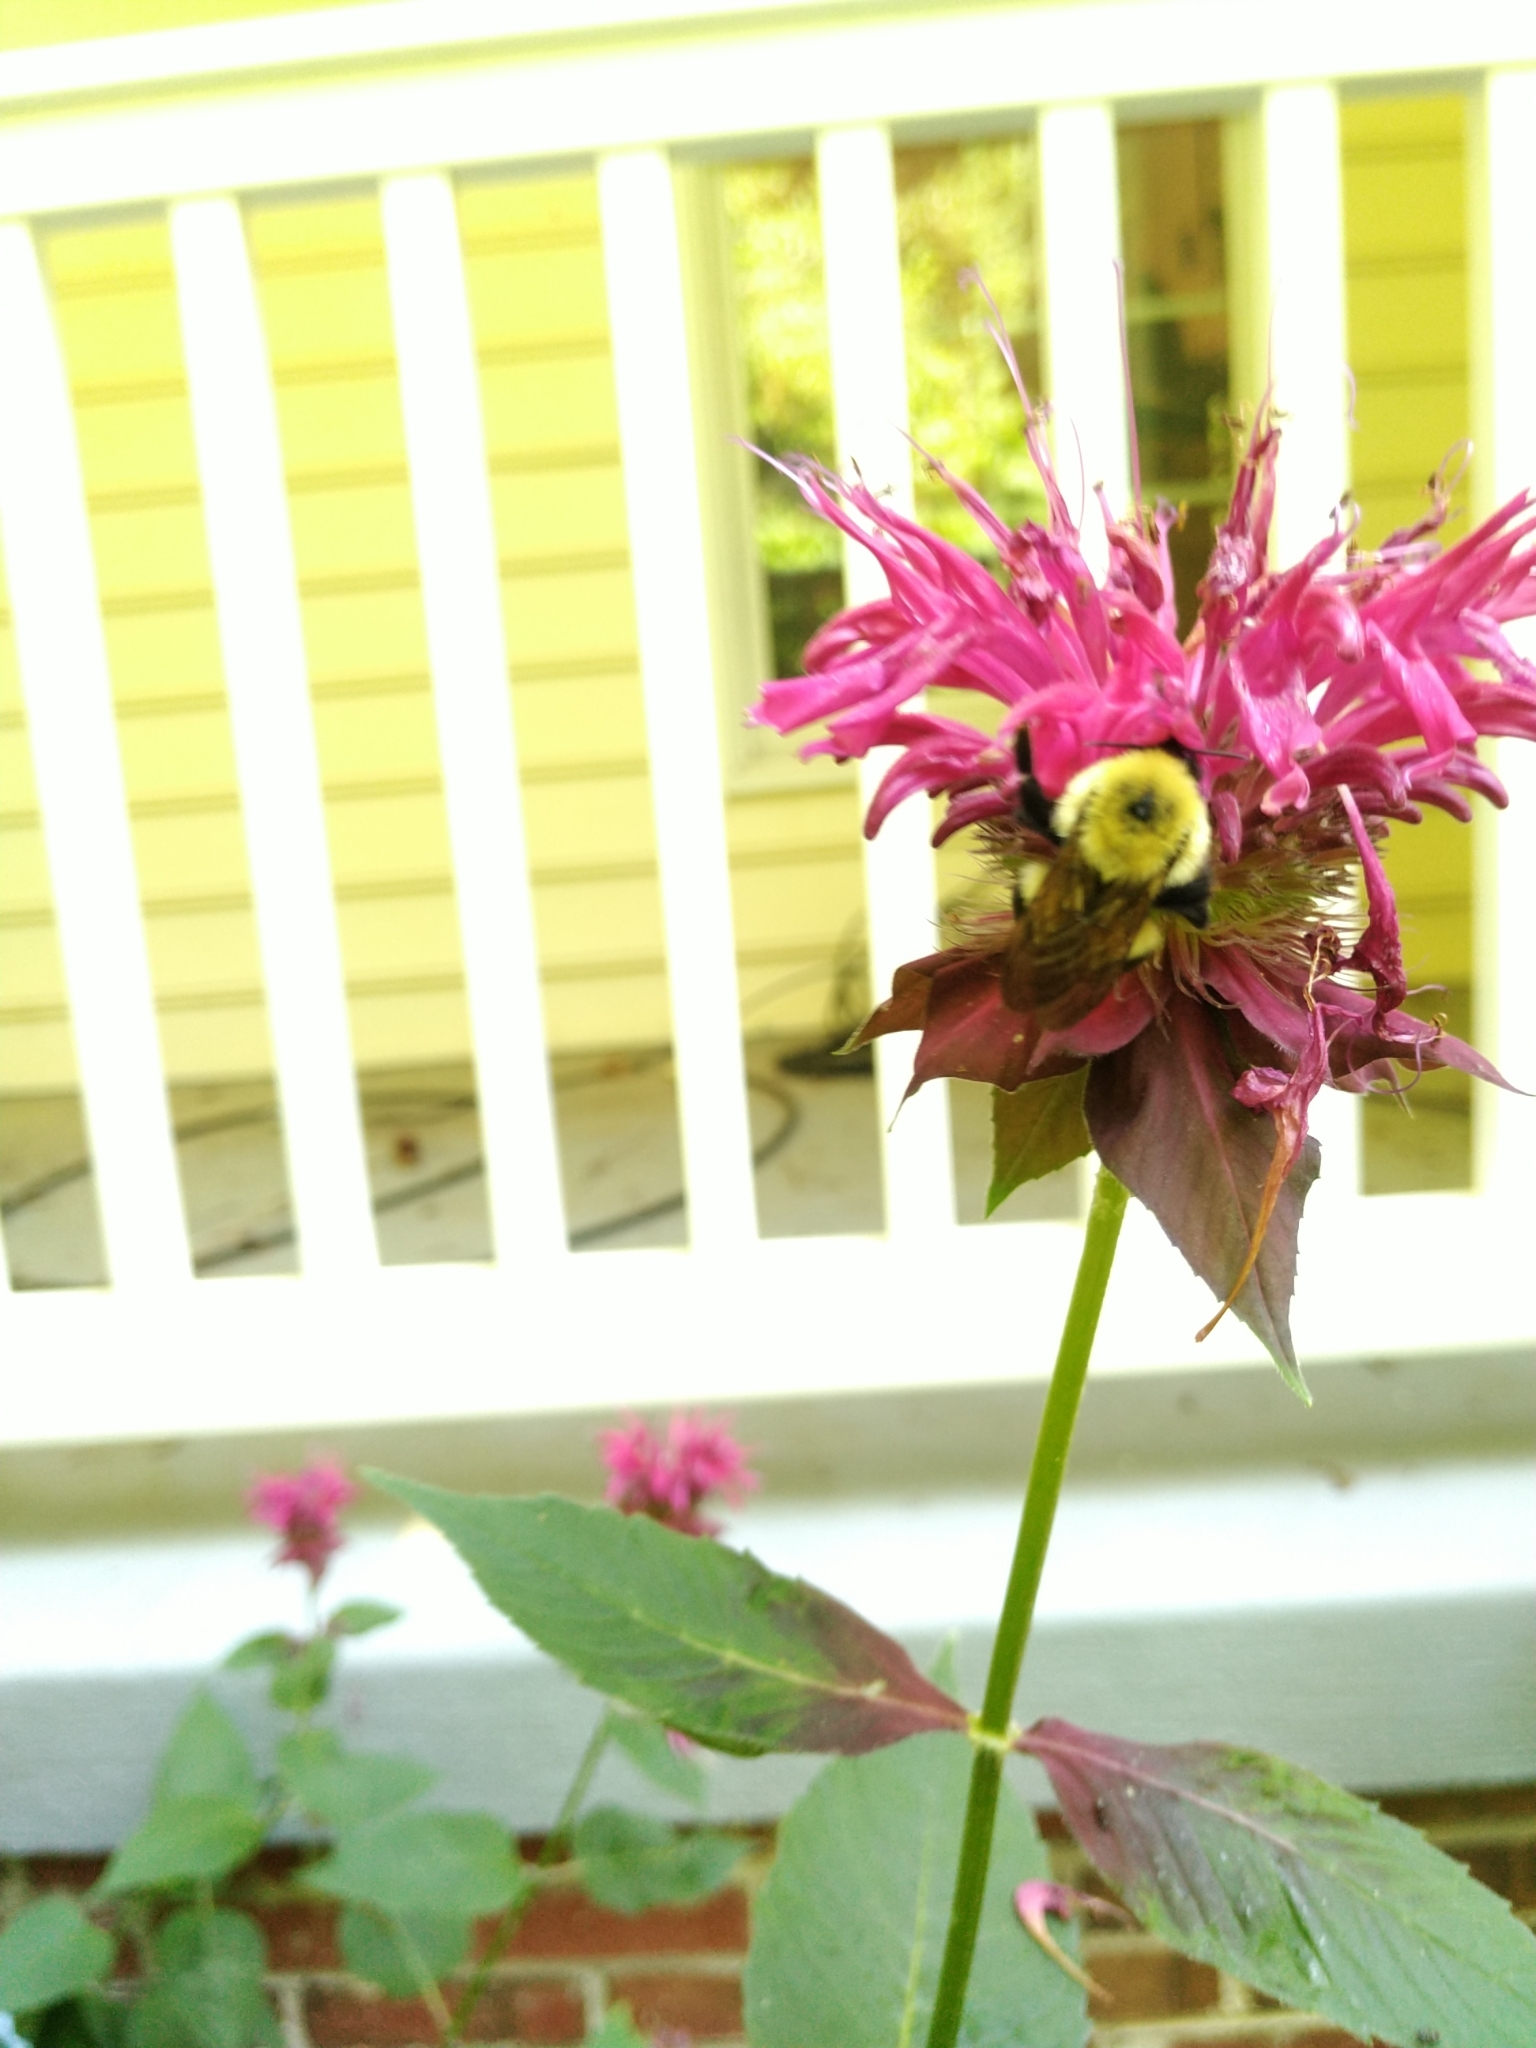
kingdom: Animalia
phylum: Arthropoda
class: Insecta
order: Hymenoptera
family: Apidae
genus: Bombus
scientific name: Bombus bimaculatus
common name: Two-spotted bumble bee
